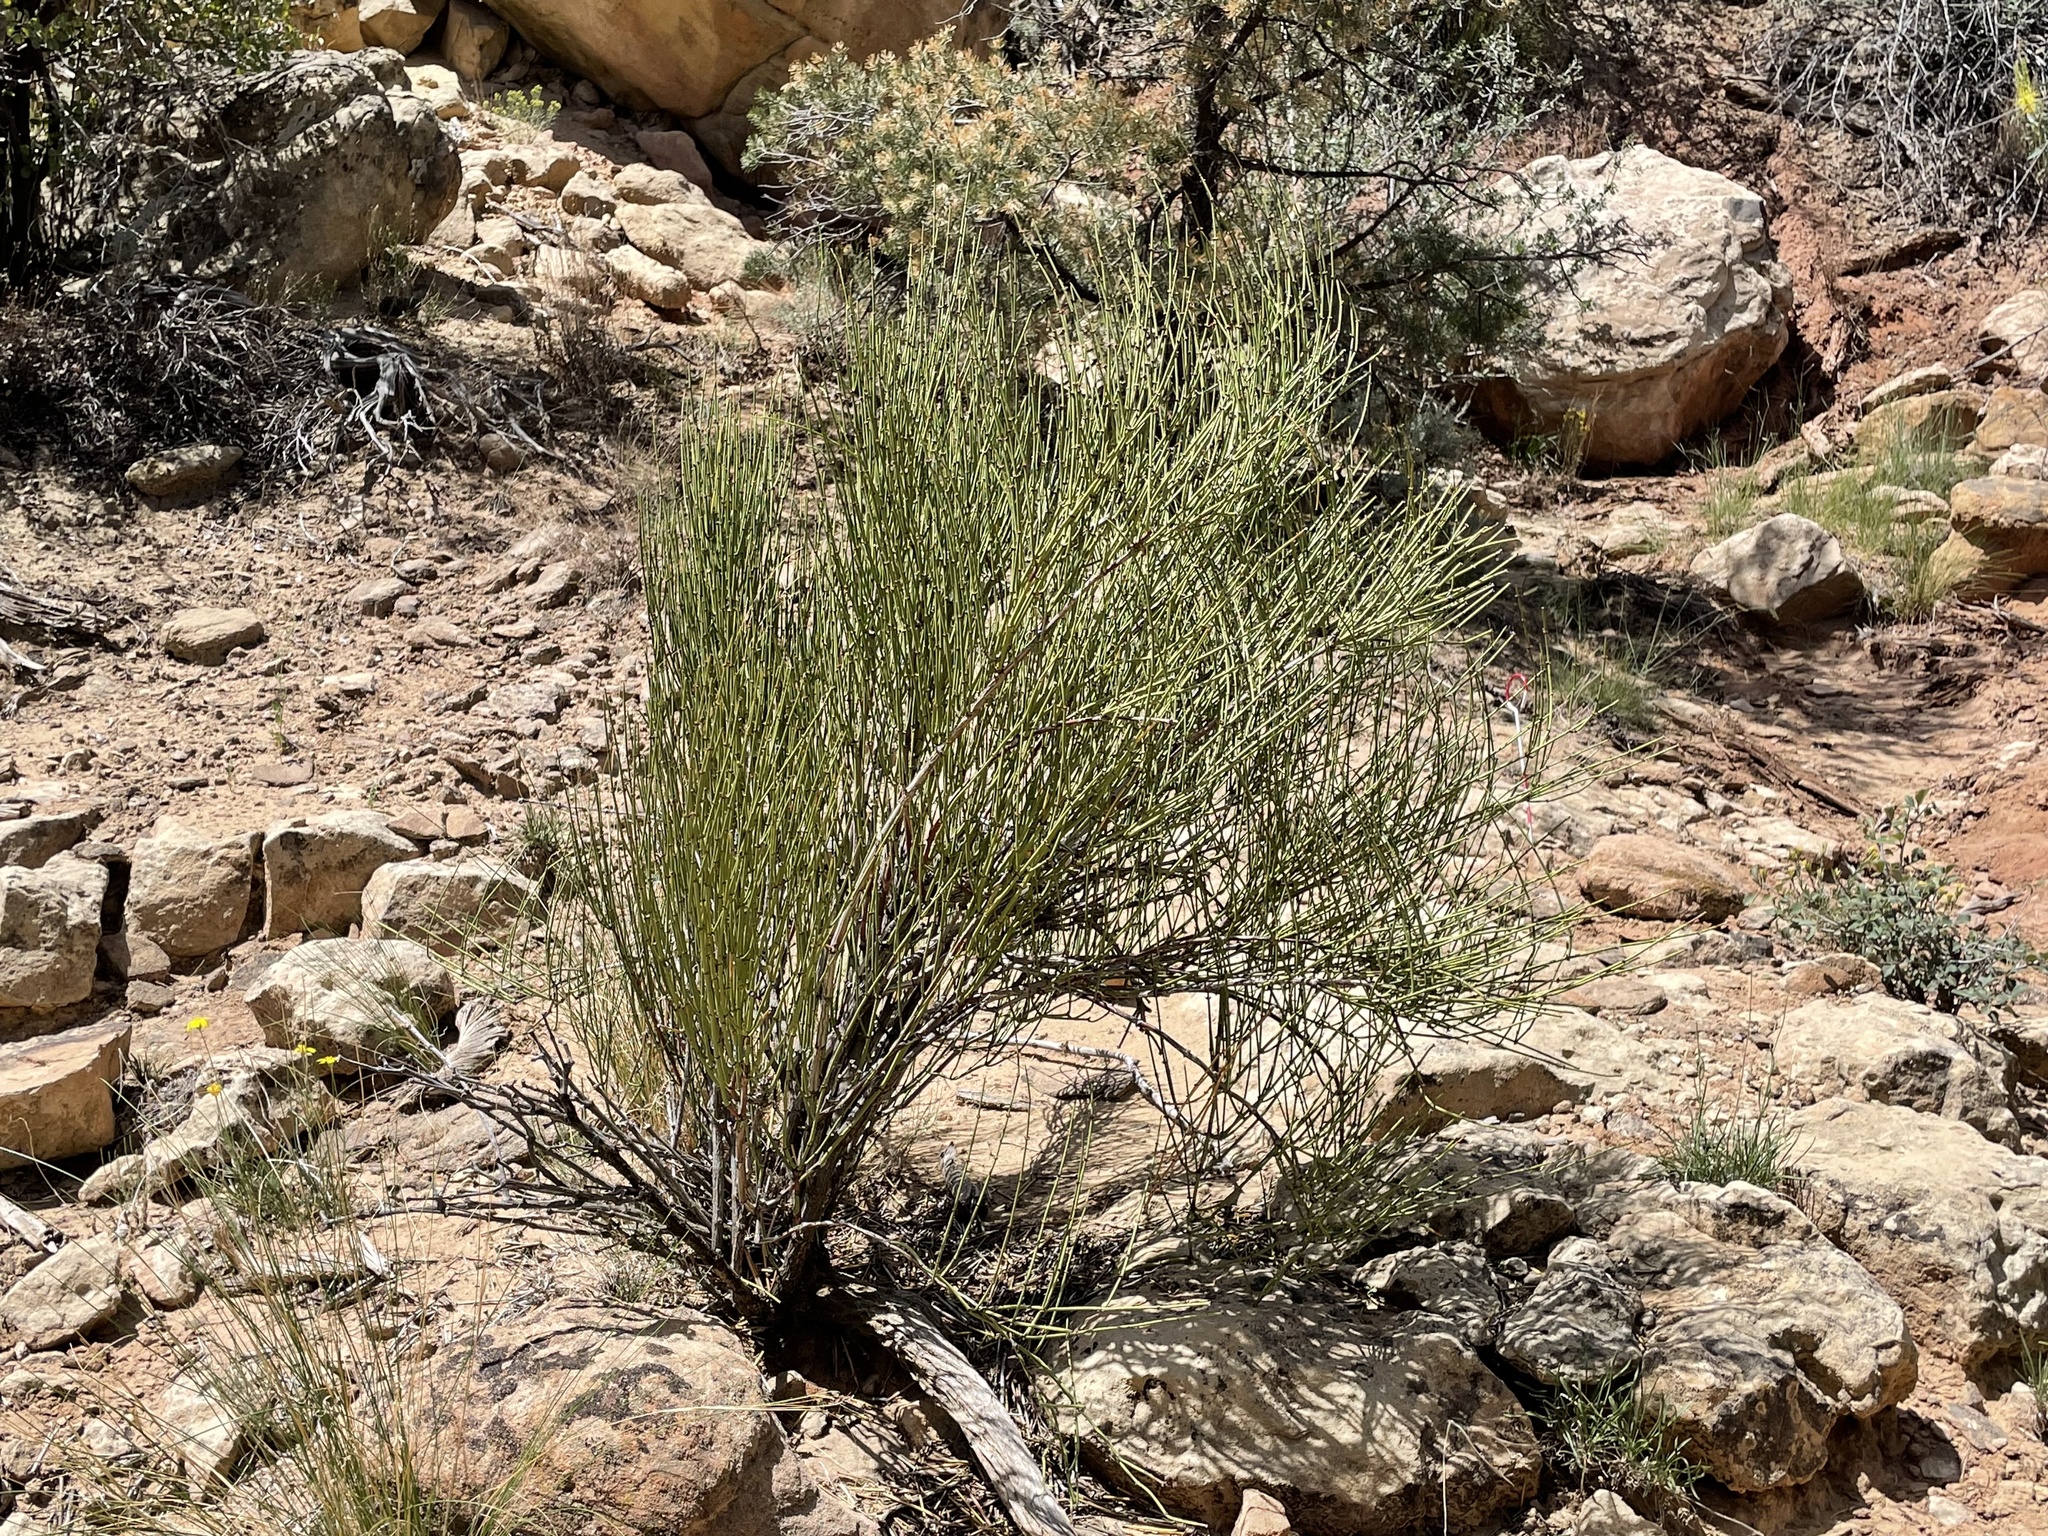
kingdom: Plantae
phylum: Tracheophyta
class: Gnetopsida
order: Ephedrales
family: Ephedraceae
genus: Ephedra
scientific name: Ephedra viridis
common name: Green ephedra
